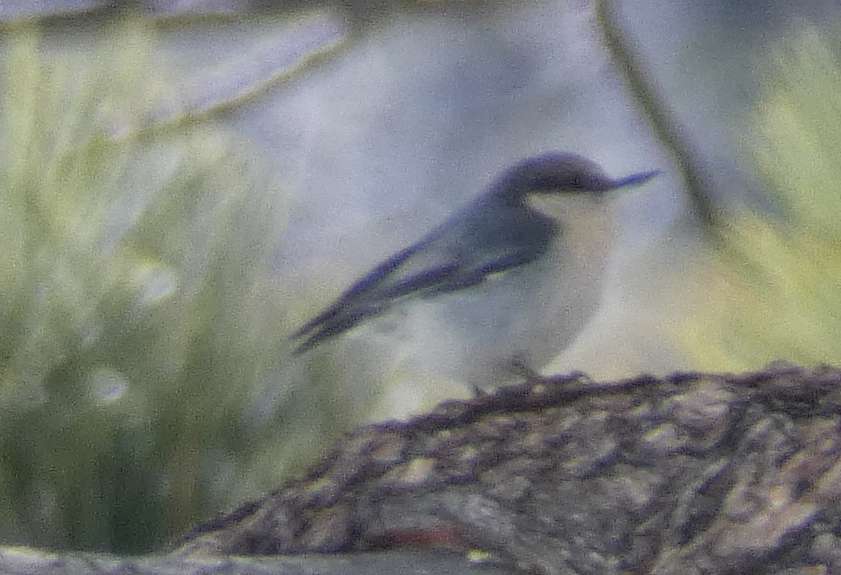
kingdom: Animalia
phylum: Chordata
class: Aves
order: Passeriformes
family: Sittidae
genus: Sitta
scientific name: Sitta pygmaea
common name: Pygmy nuthatch
